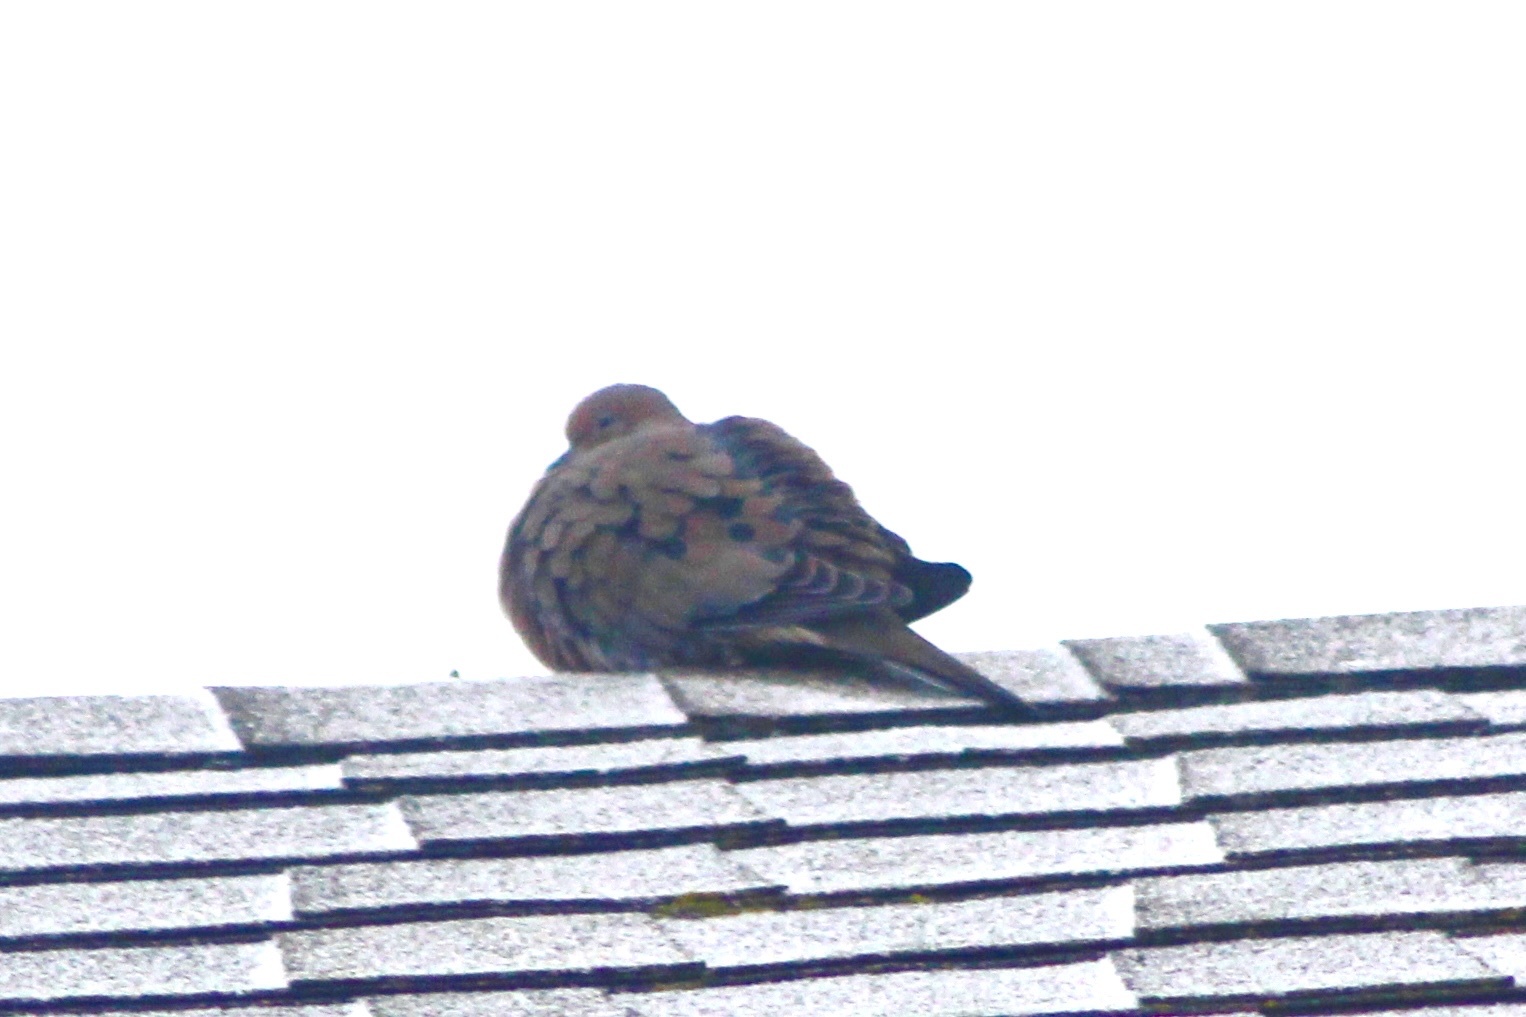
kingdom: Animalia
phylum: Chordata
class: Aves
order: Columbiformes
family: Columbidae
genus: Zenaida
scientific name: Zenaida macroura
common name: Mourning dove
